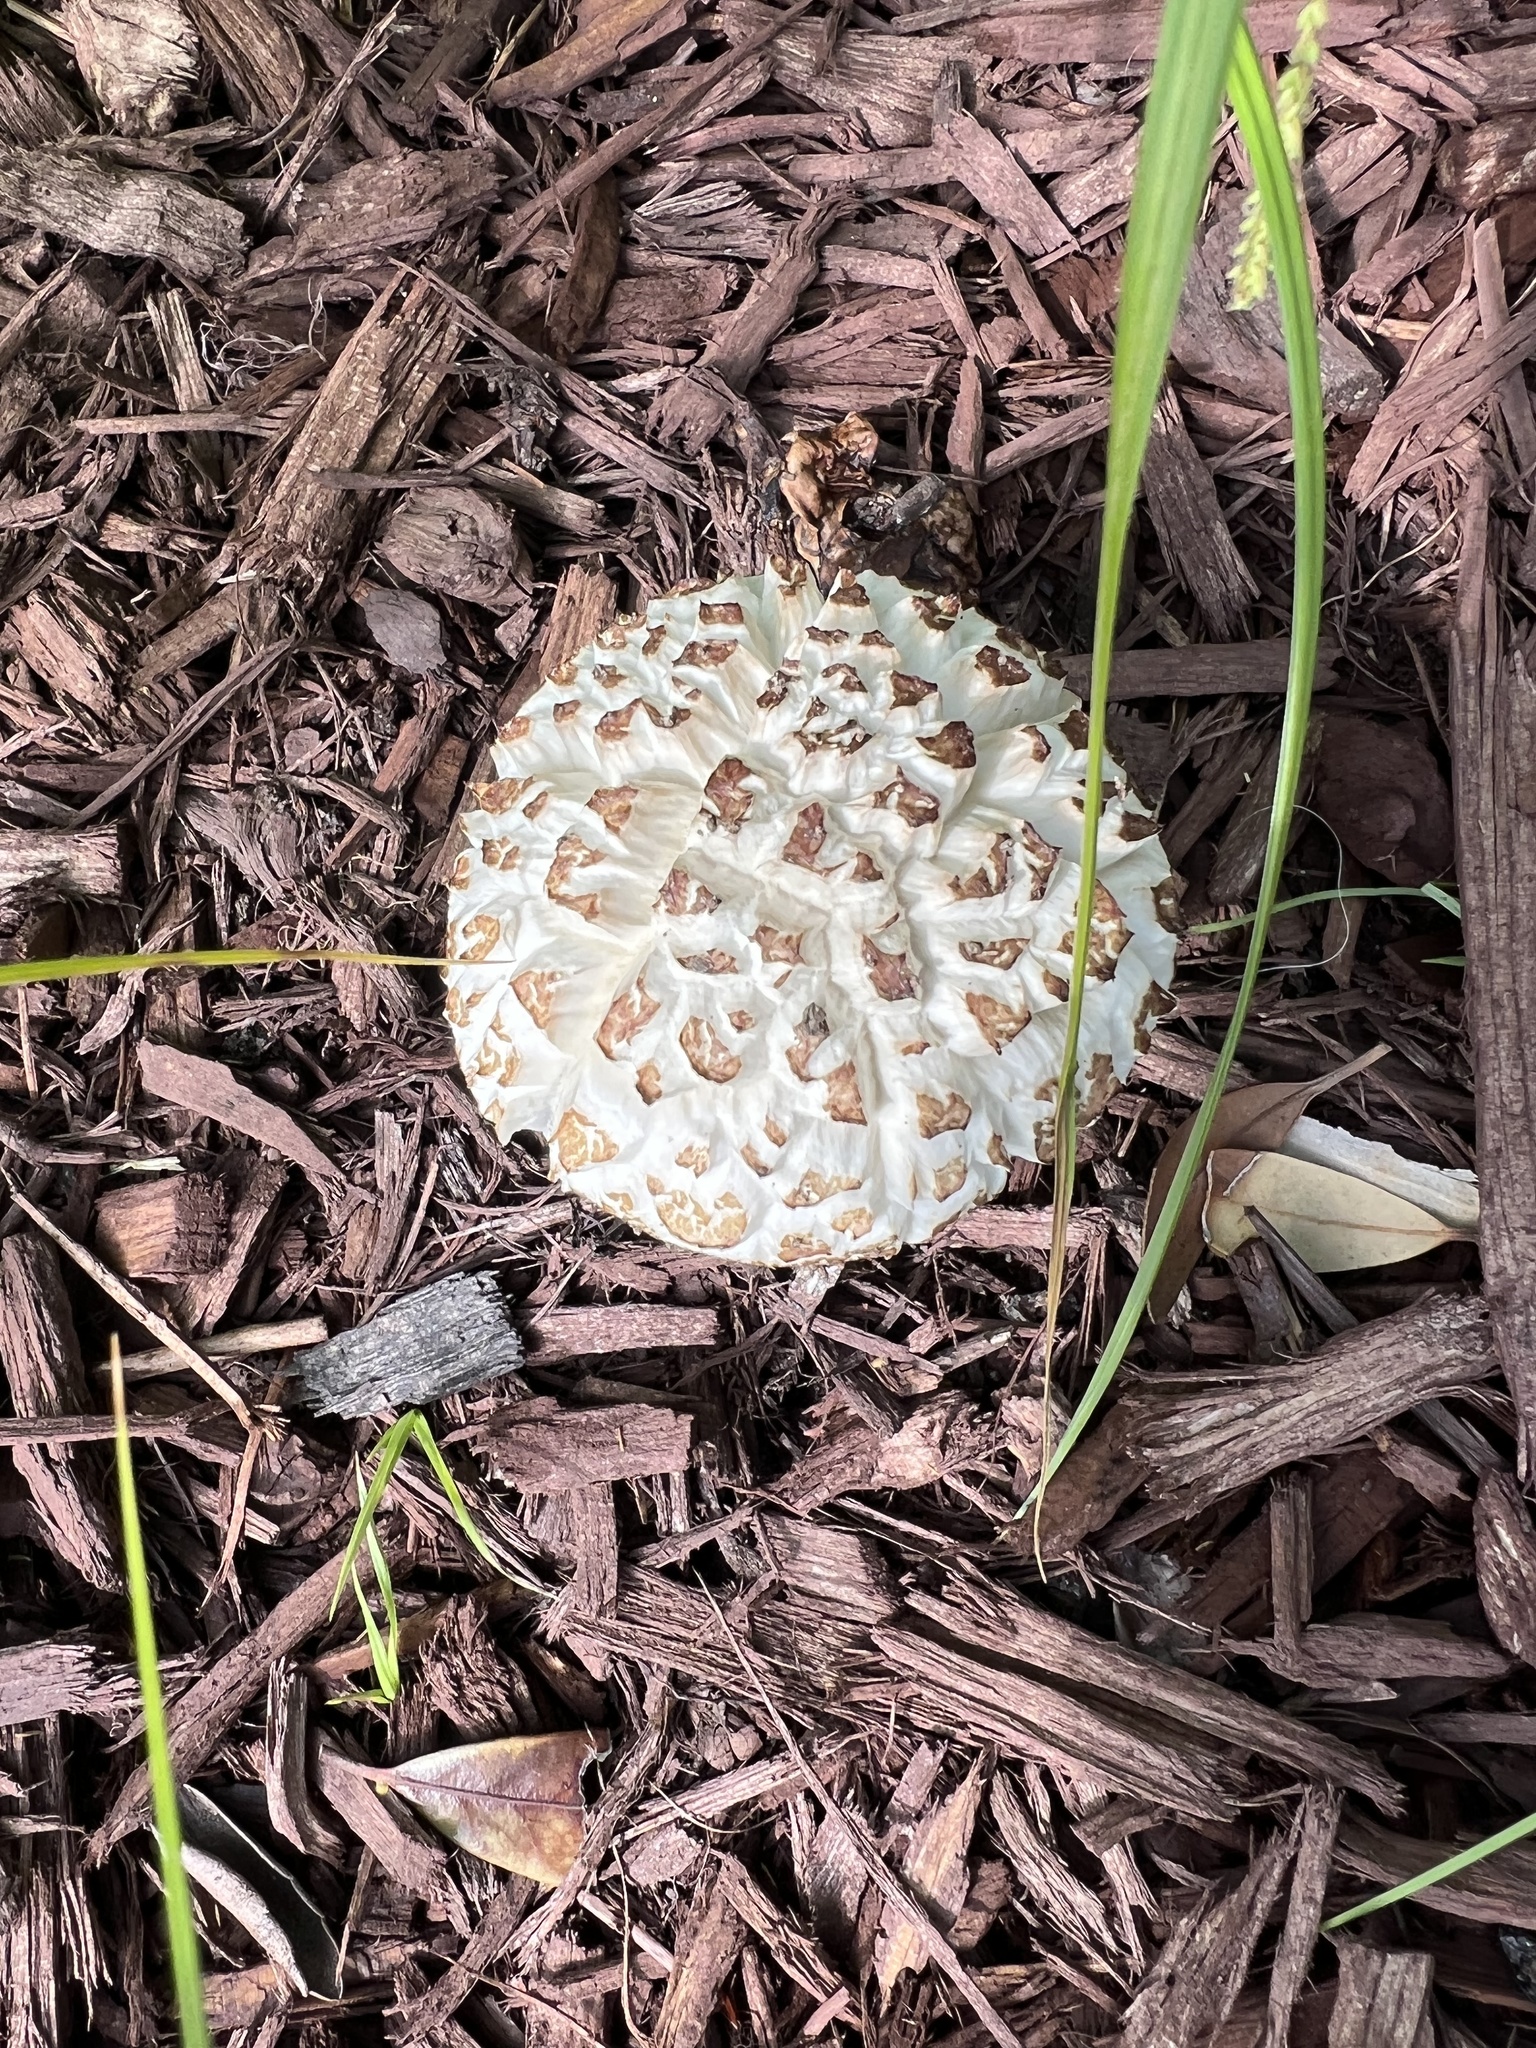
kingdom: Fungi
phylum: Basidiomycota
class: Agaricomycetes
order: Agaricales
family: Strophariaceae
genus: Stropharia
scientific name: Stropharia rugosoannulata
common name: Wine roundhead
